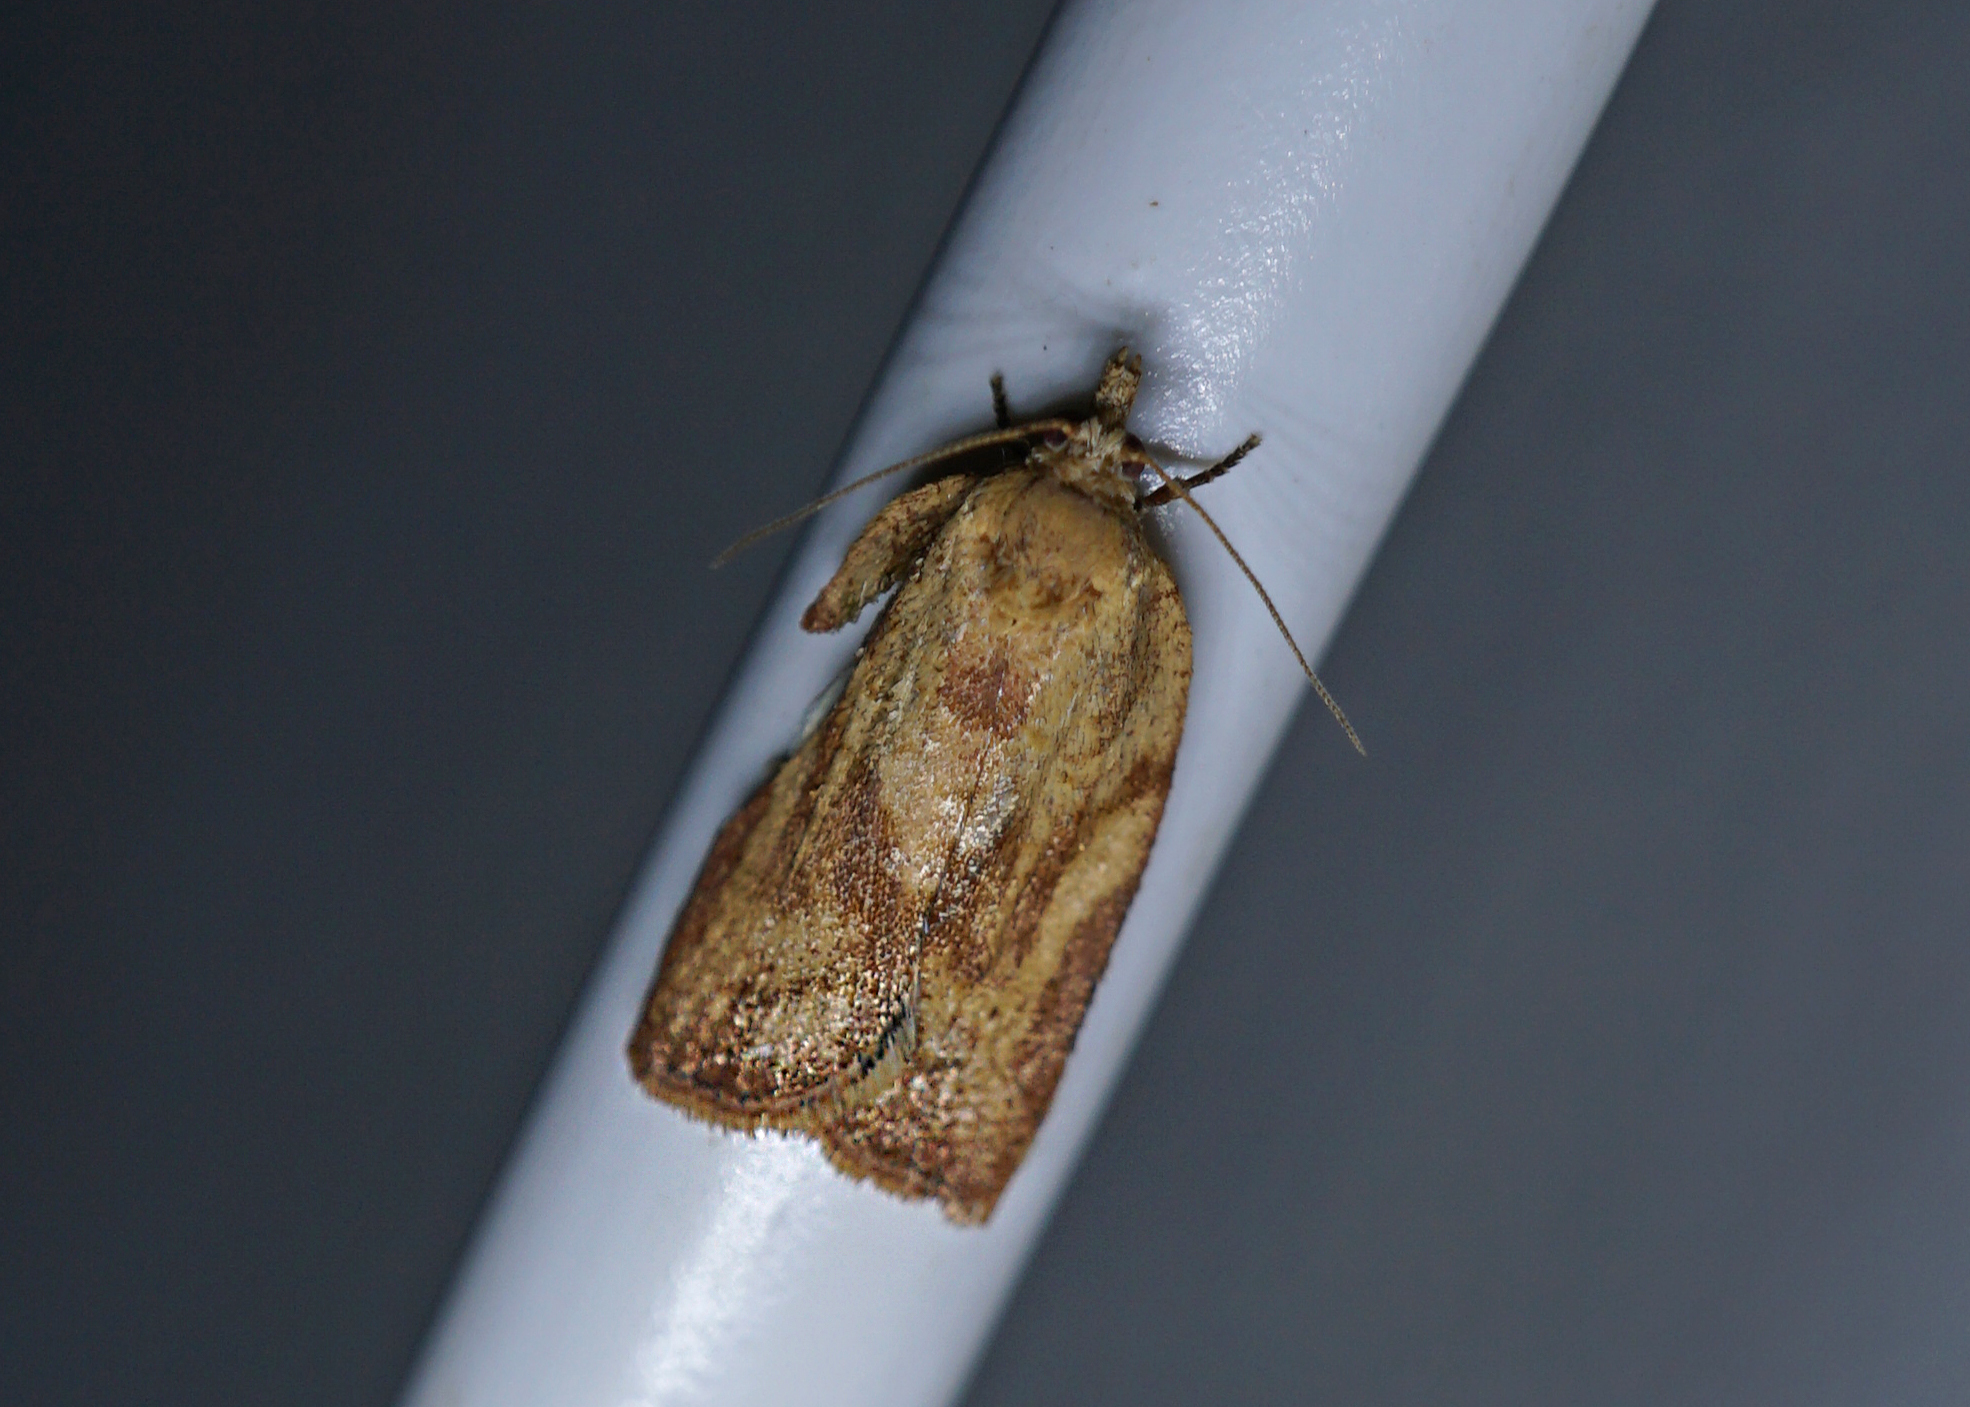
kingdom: Animalia
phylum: Arthropoda
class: Insecta
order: Lepidoptera
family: Tortricidae
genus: Epiphyas
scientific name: Epiphyas postvittana
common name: Light brown apple moth
